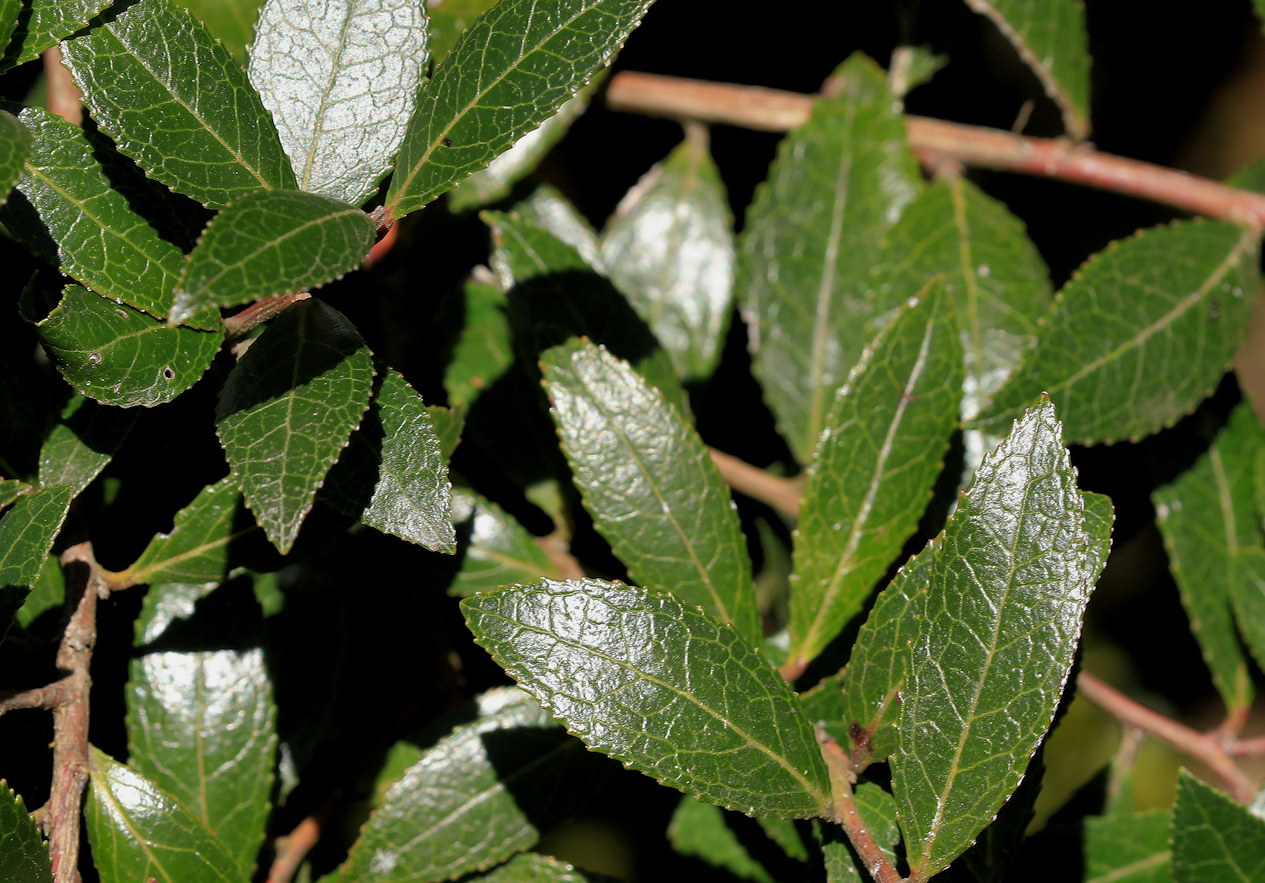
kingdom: Plantae
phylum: Tracheophyta
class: Magnoliopsida
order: Ericales
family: Ericaceae
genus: Vaccinium
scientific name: Vaccinium exul
